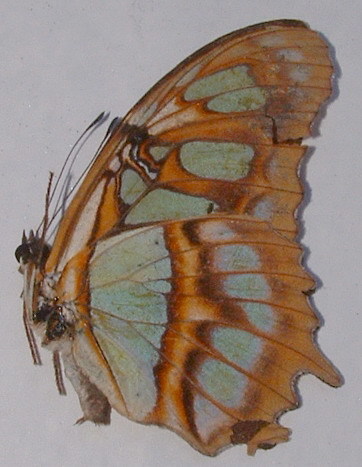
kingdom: Animalia
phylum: Arthropoda
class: Insecta
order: Lepidoptera
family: Nymphalidae
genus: Siproeta
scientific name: Siproeta stelenes
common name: Malachite
